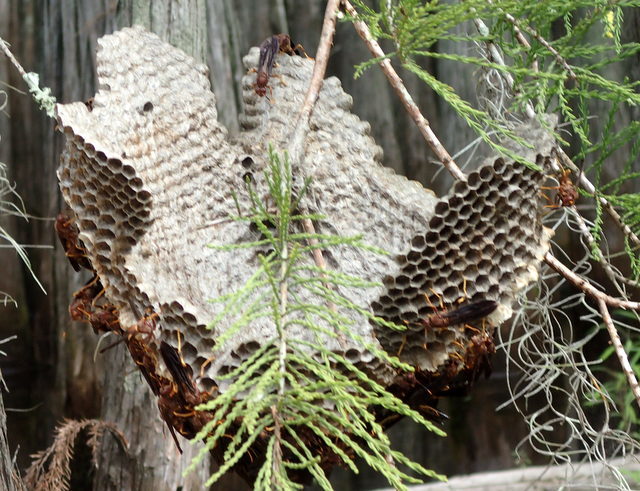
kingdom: Animalia
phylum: Arthropoda
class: Insecta
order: Hymenoptera
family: Eumenidae
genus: Polistes
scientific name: Polistes annularis
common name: Ringed paper wasp
